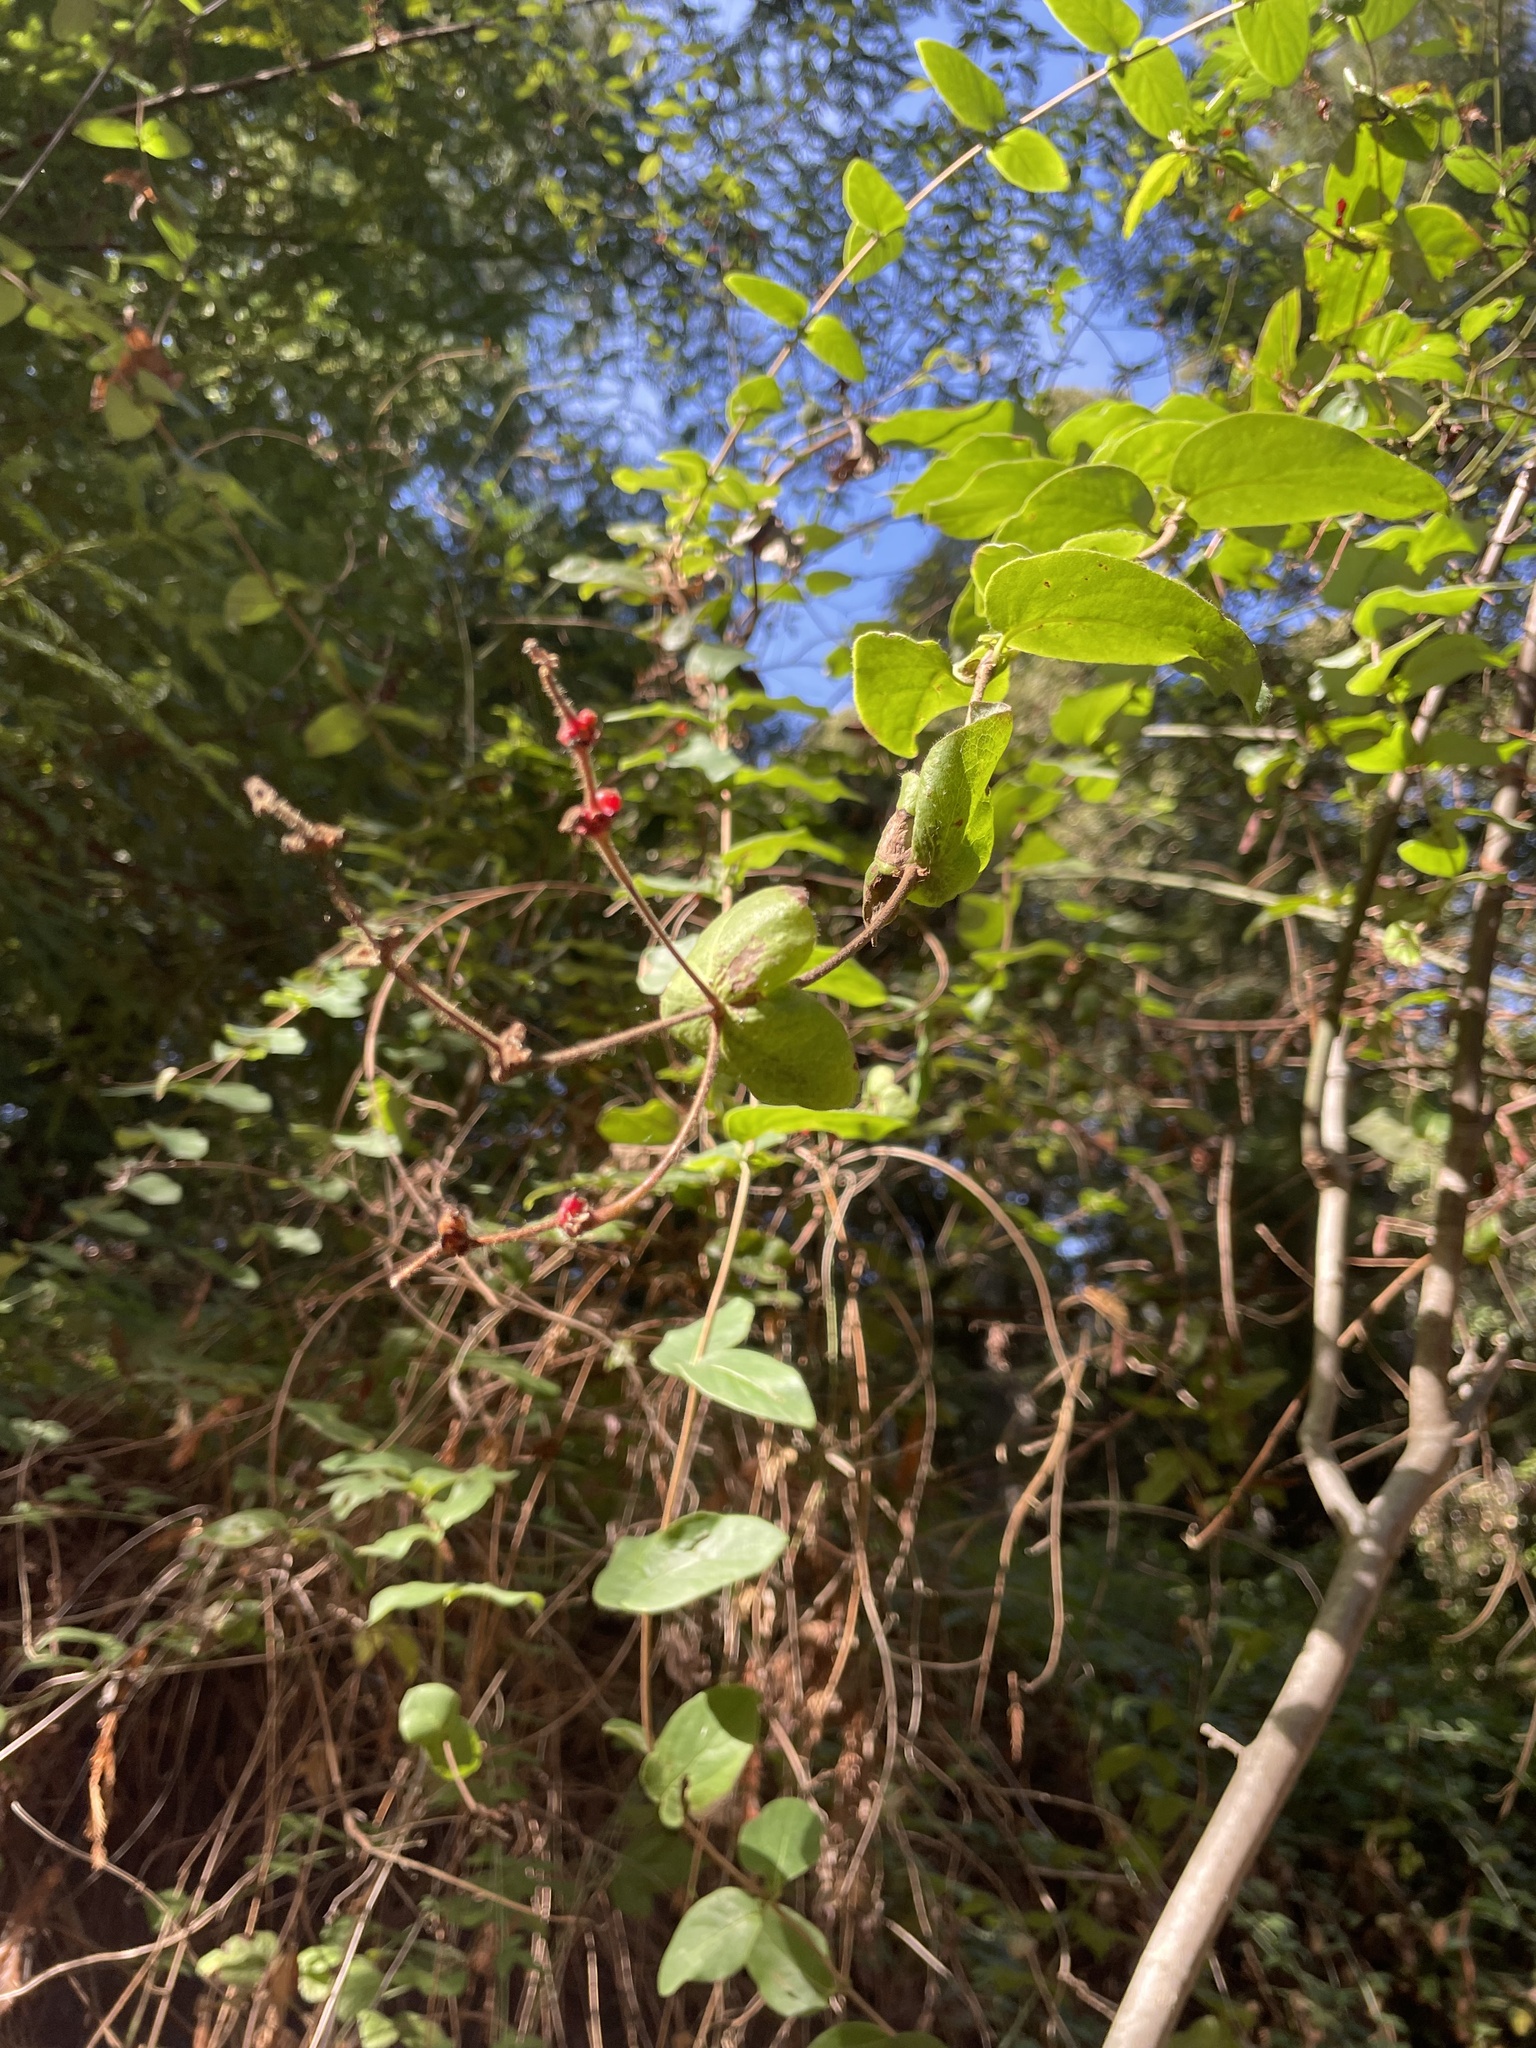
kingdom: Plantae
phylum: Tracheophyta
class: Magnoliopsida
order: Dipsacales
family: Caprifoliaceae
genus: Lonicera
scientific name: Lonicera hispidula
